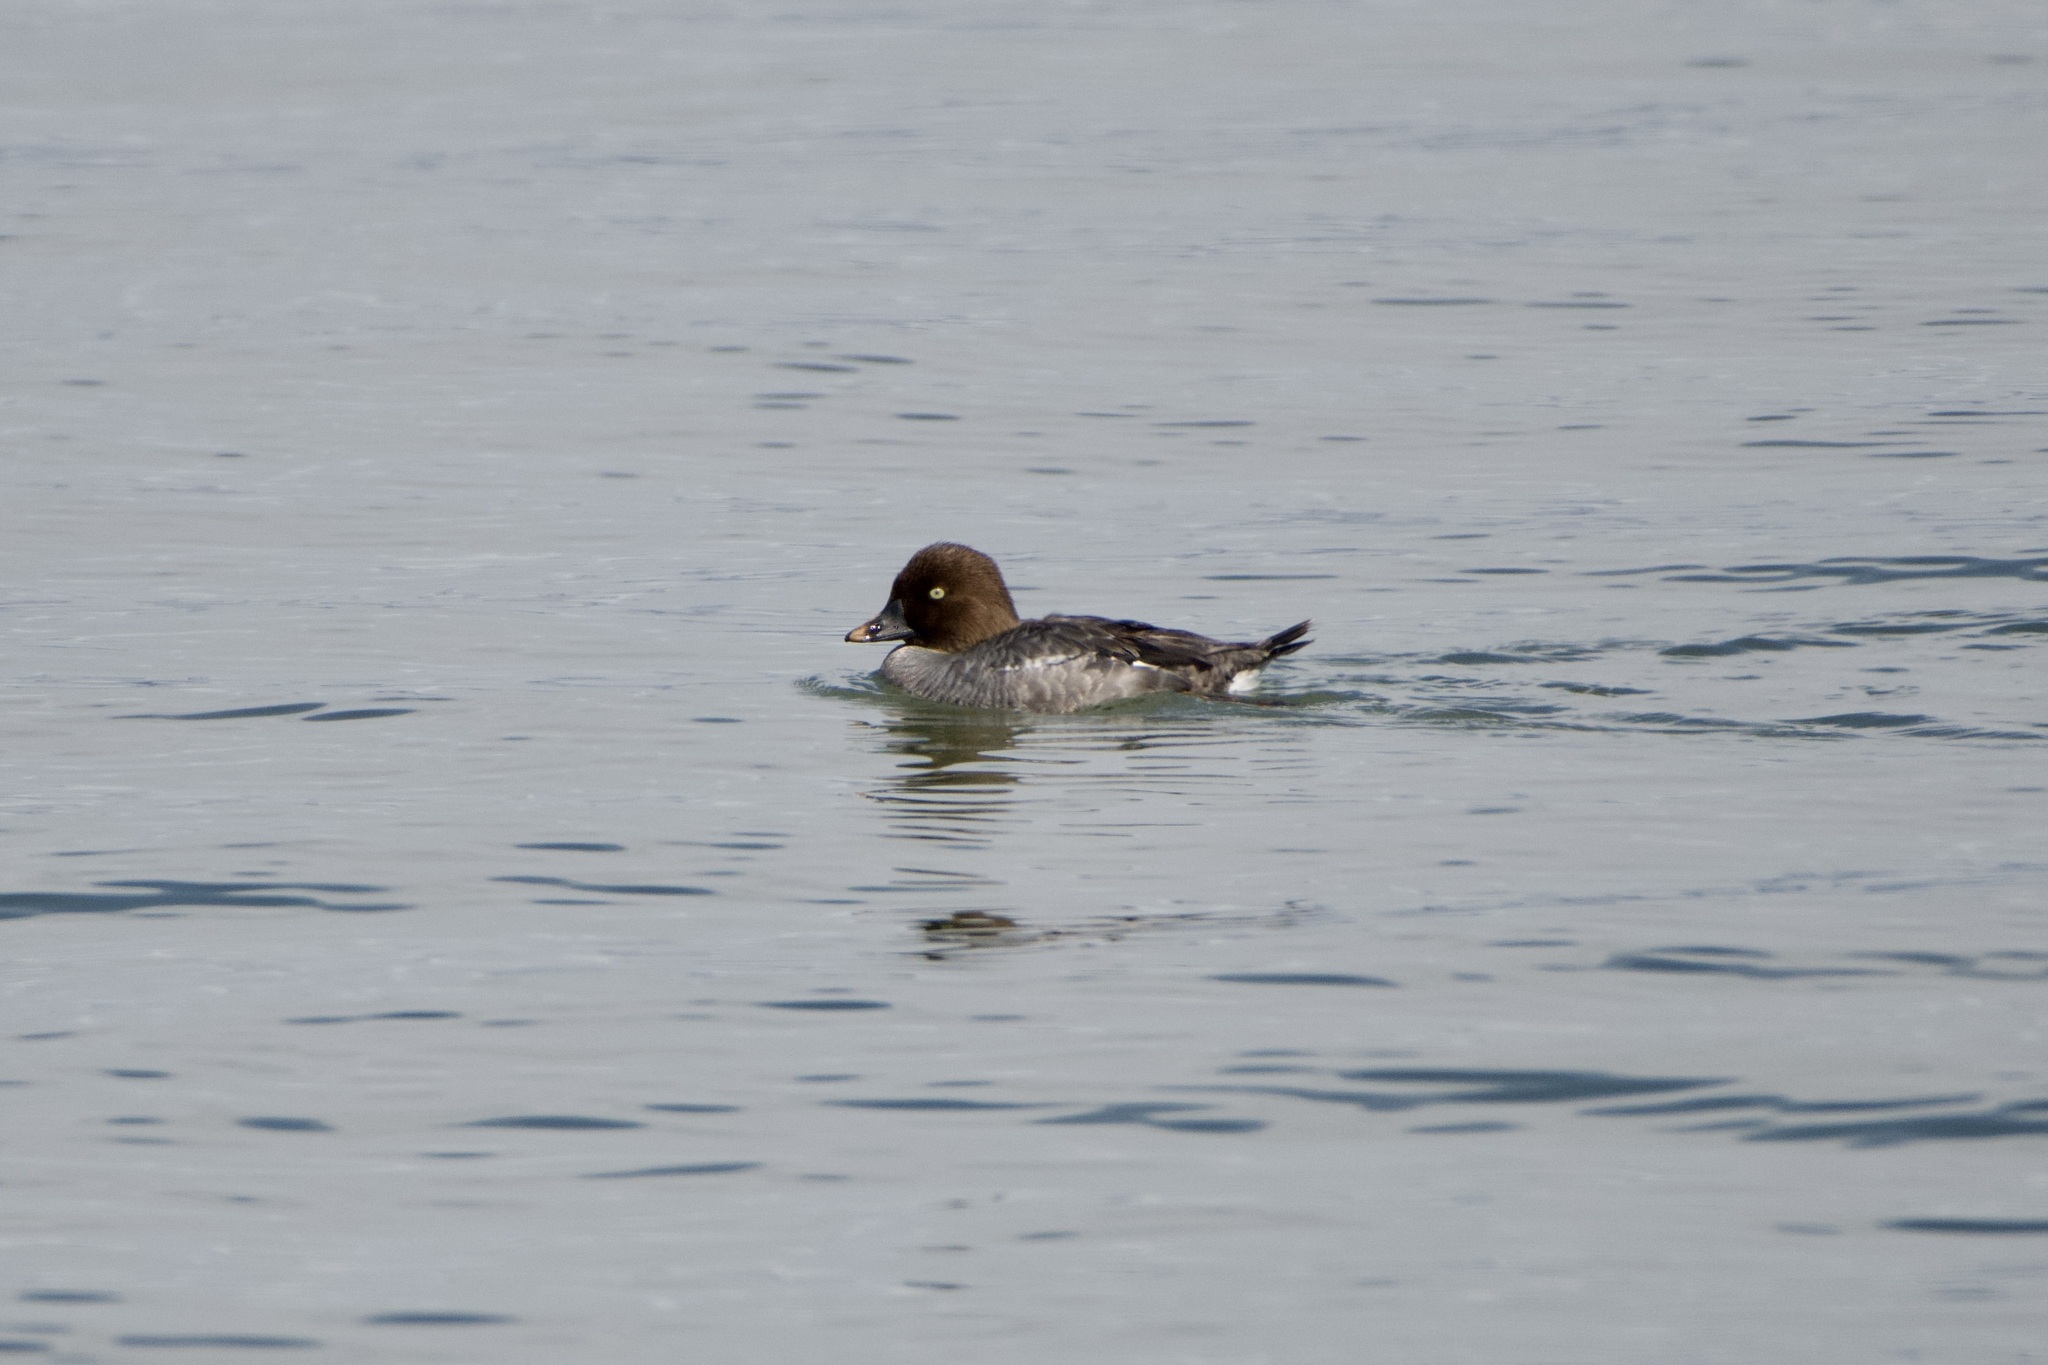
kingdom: Animalia
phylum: Chordata
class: Aves
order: Anseriformes
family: Anatidae
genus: Bucephala
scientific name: Bucephala clangula
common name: Common goldeneye
